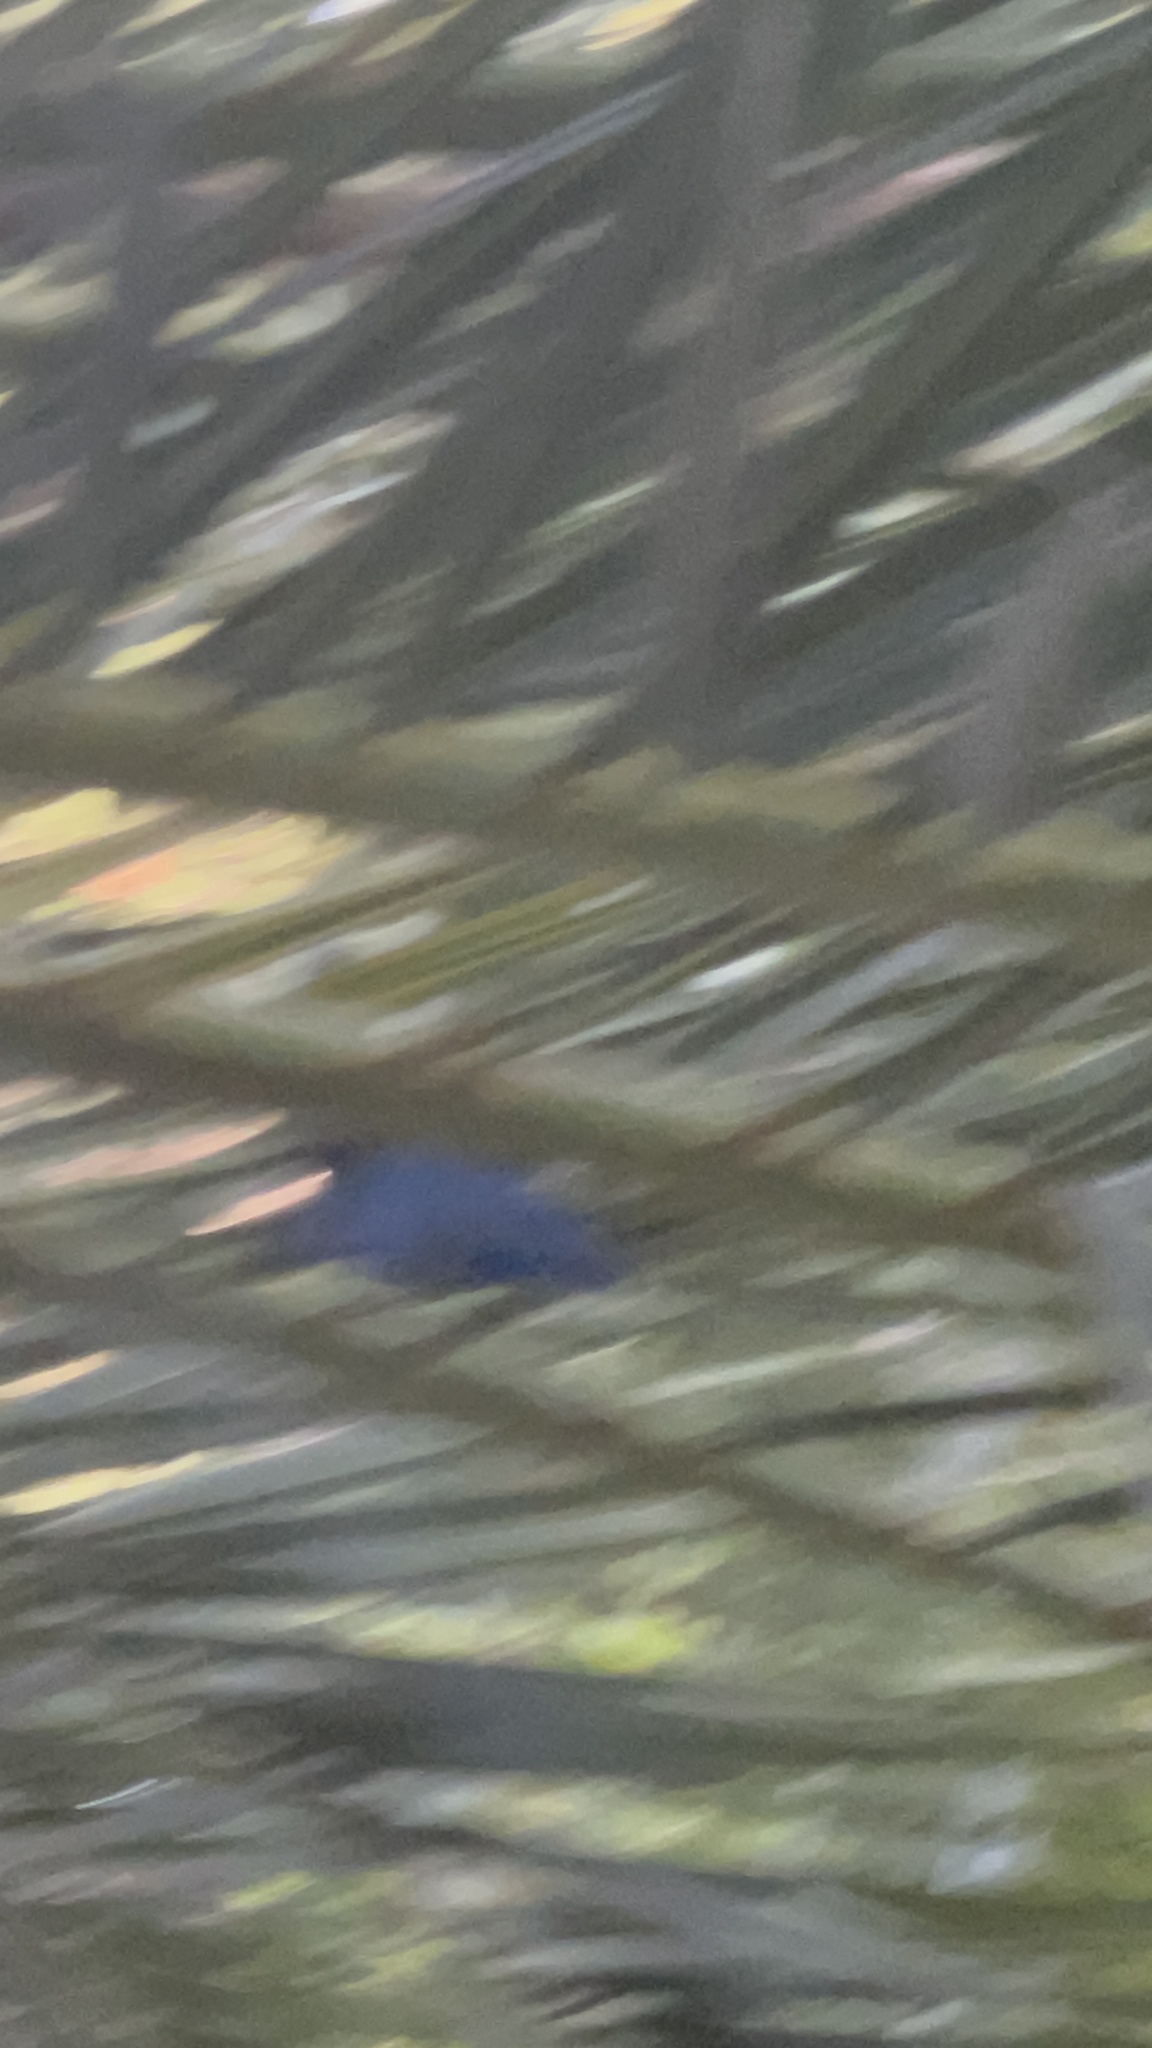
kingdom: Animalia
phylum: Chordata
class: Aves
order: Passeriformes
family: Corvidae
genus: Cyanocitta
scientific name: Cyanocitta stelleri
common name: Steller's jay
